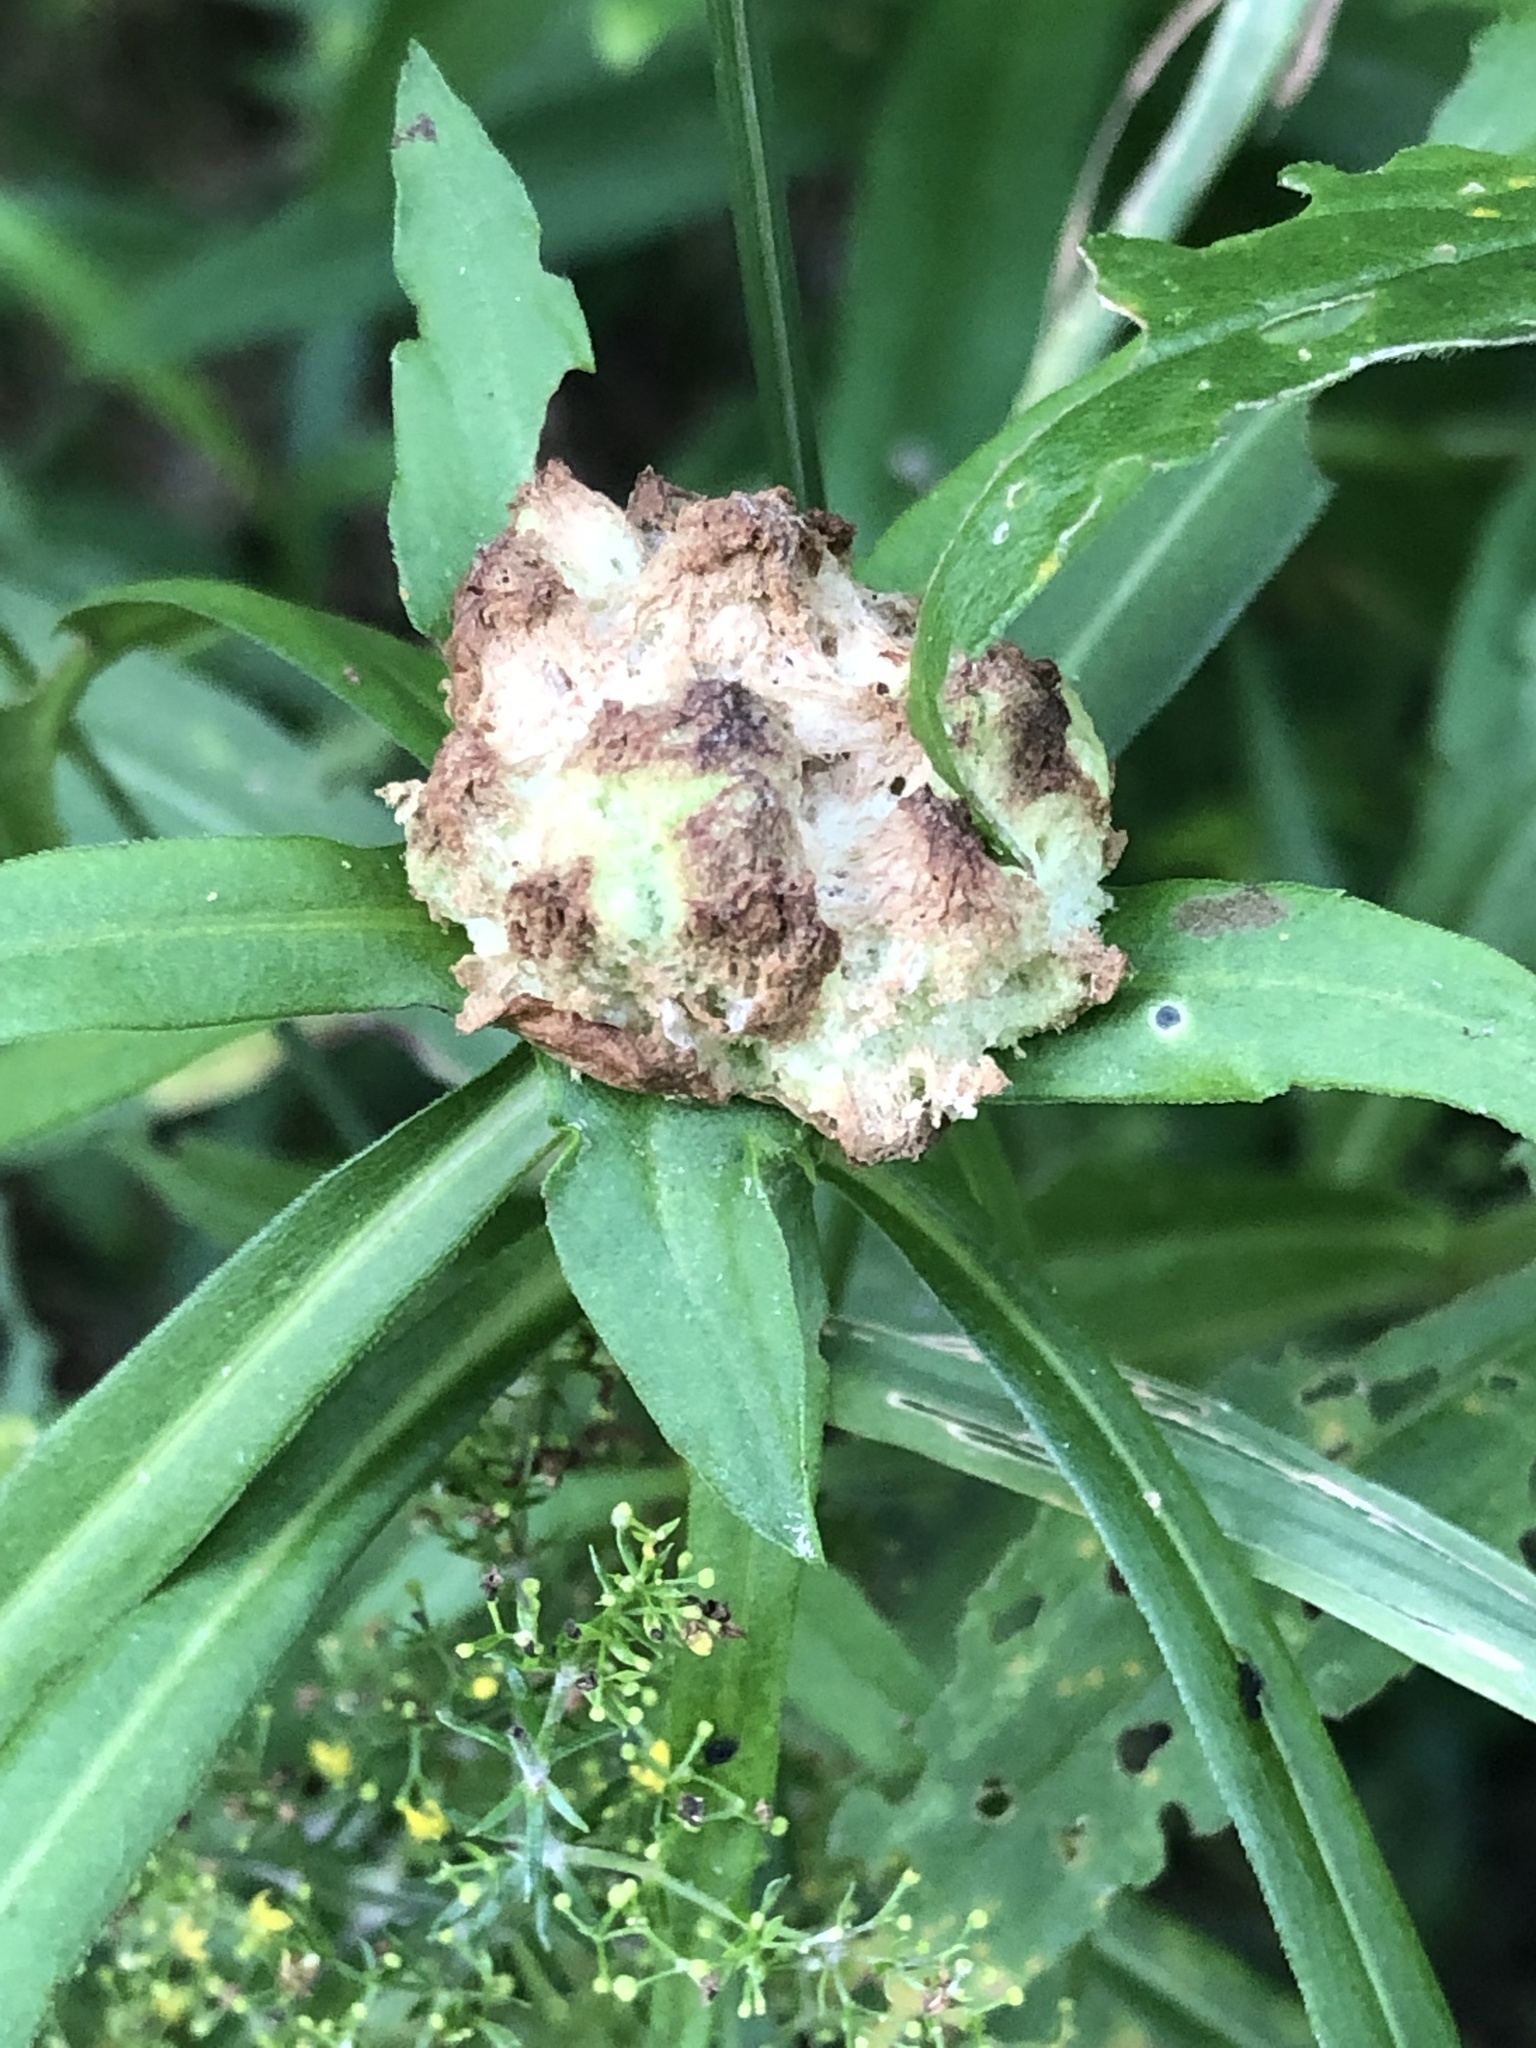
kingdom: Bacteria
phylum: Proteobacteria
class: Alphaproteobacteria
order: Rhizobiales
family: Rhizobiaceae
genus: Rhizobium
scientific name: Rhizobium Agrobacterium radiobacter
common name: Bacterial crown gall
